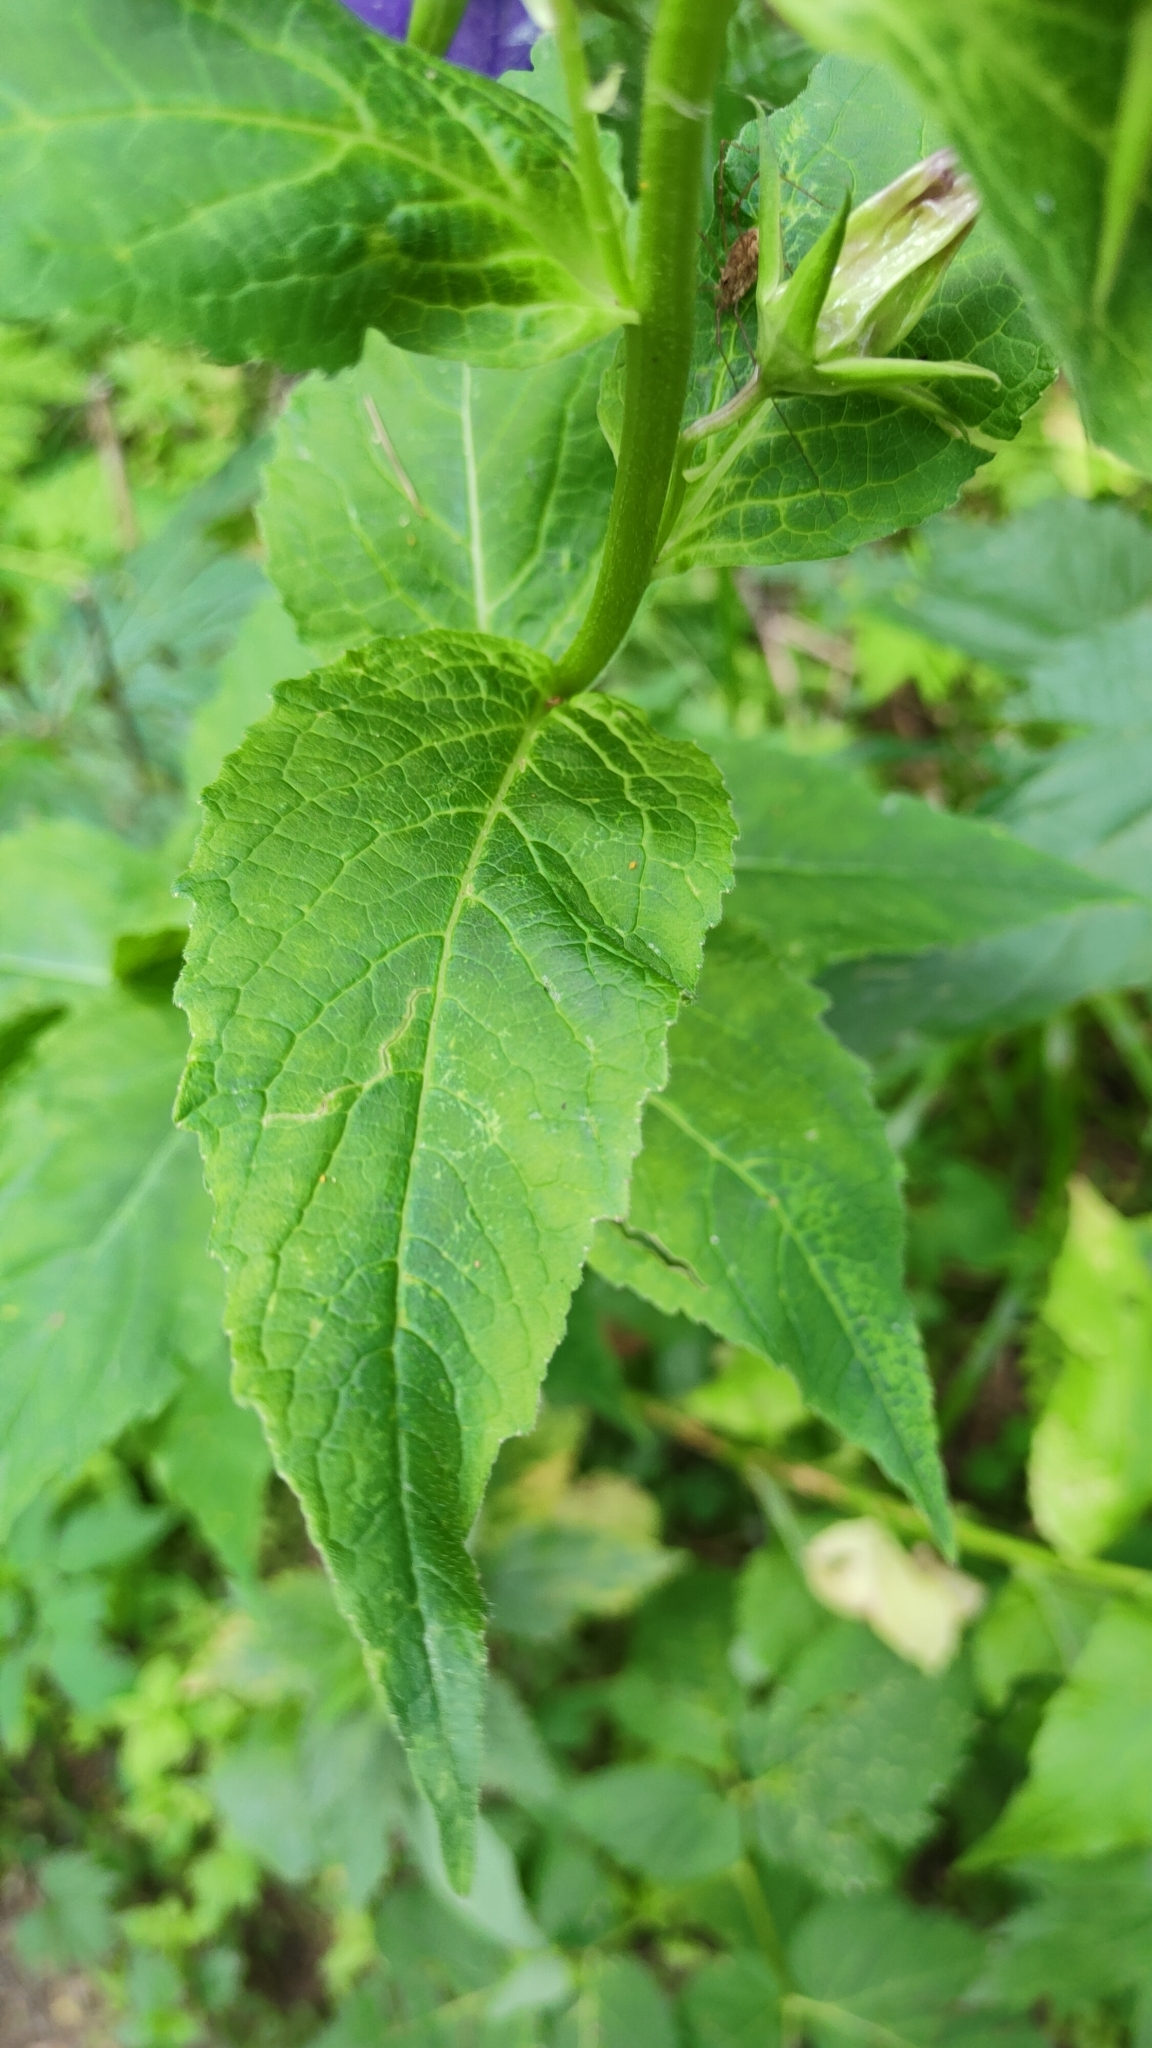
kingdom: Plantae
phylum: Tracheophyta
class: Magnoliopsida
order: Asterales
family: Campanulaceae
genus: Campanula
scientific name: Campanula latifolia
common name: Giant bellflower
